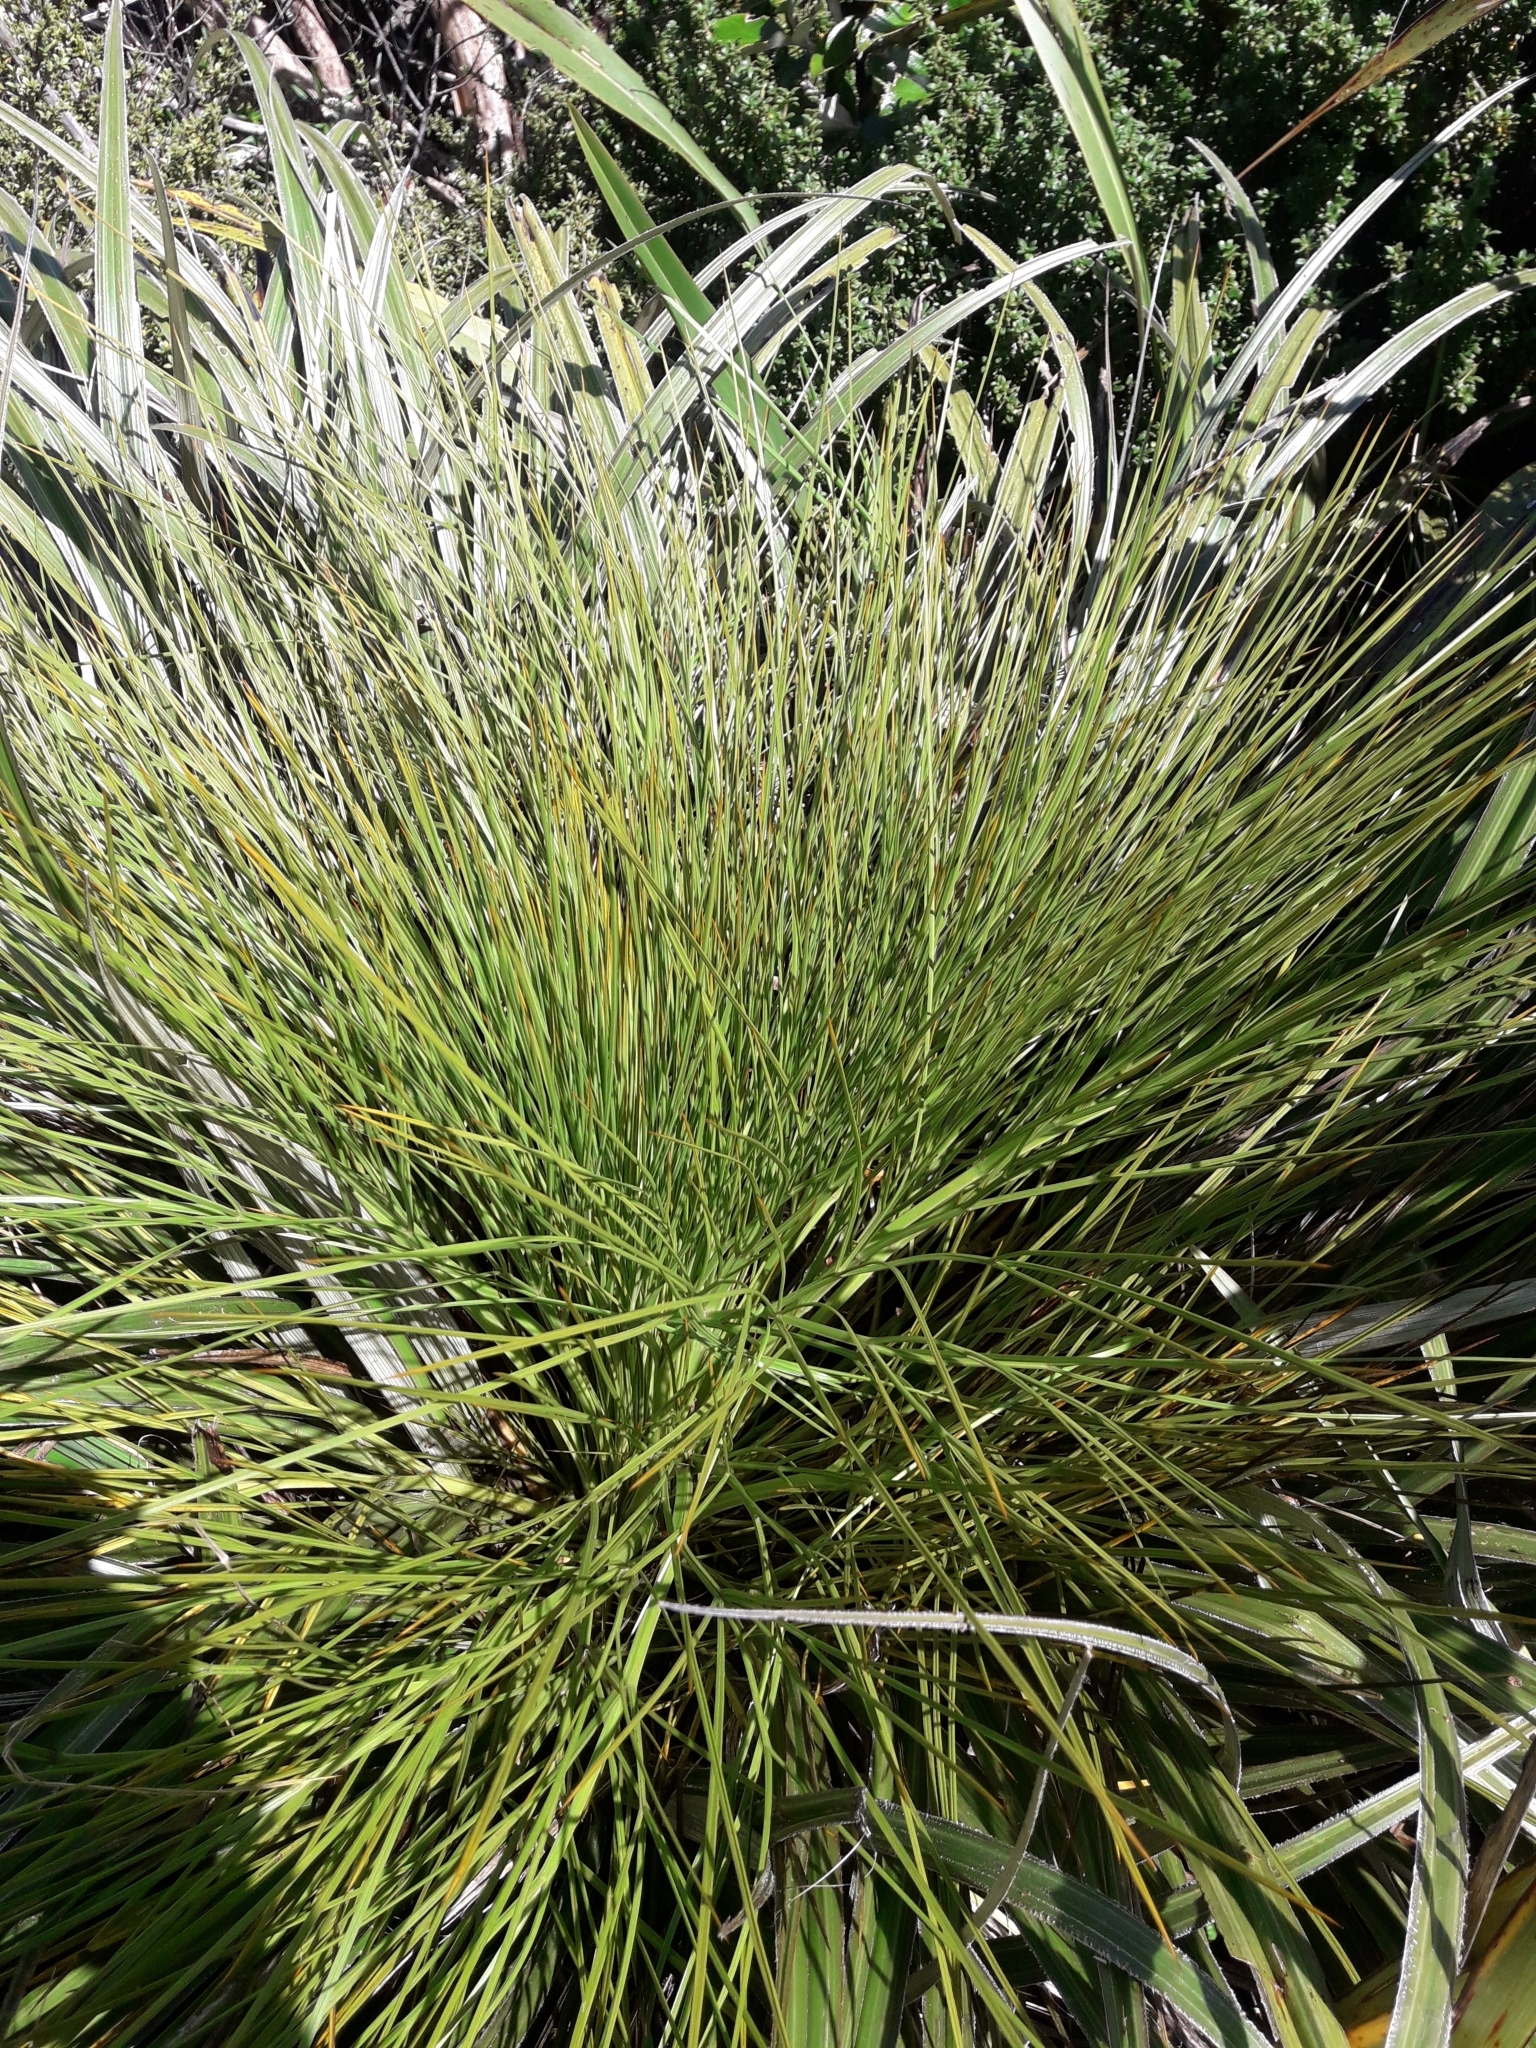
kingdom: Plantae
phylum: Tracheophyta
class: Magnoliopsida
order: Apiales
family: Apiaceae
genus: Aciphylla
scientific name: Aciphylla squarrosa
